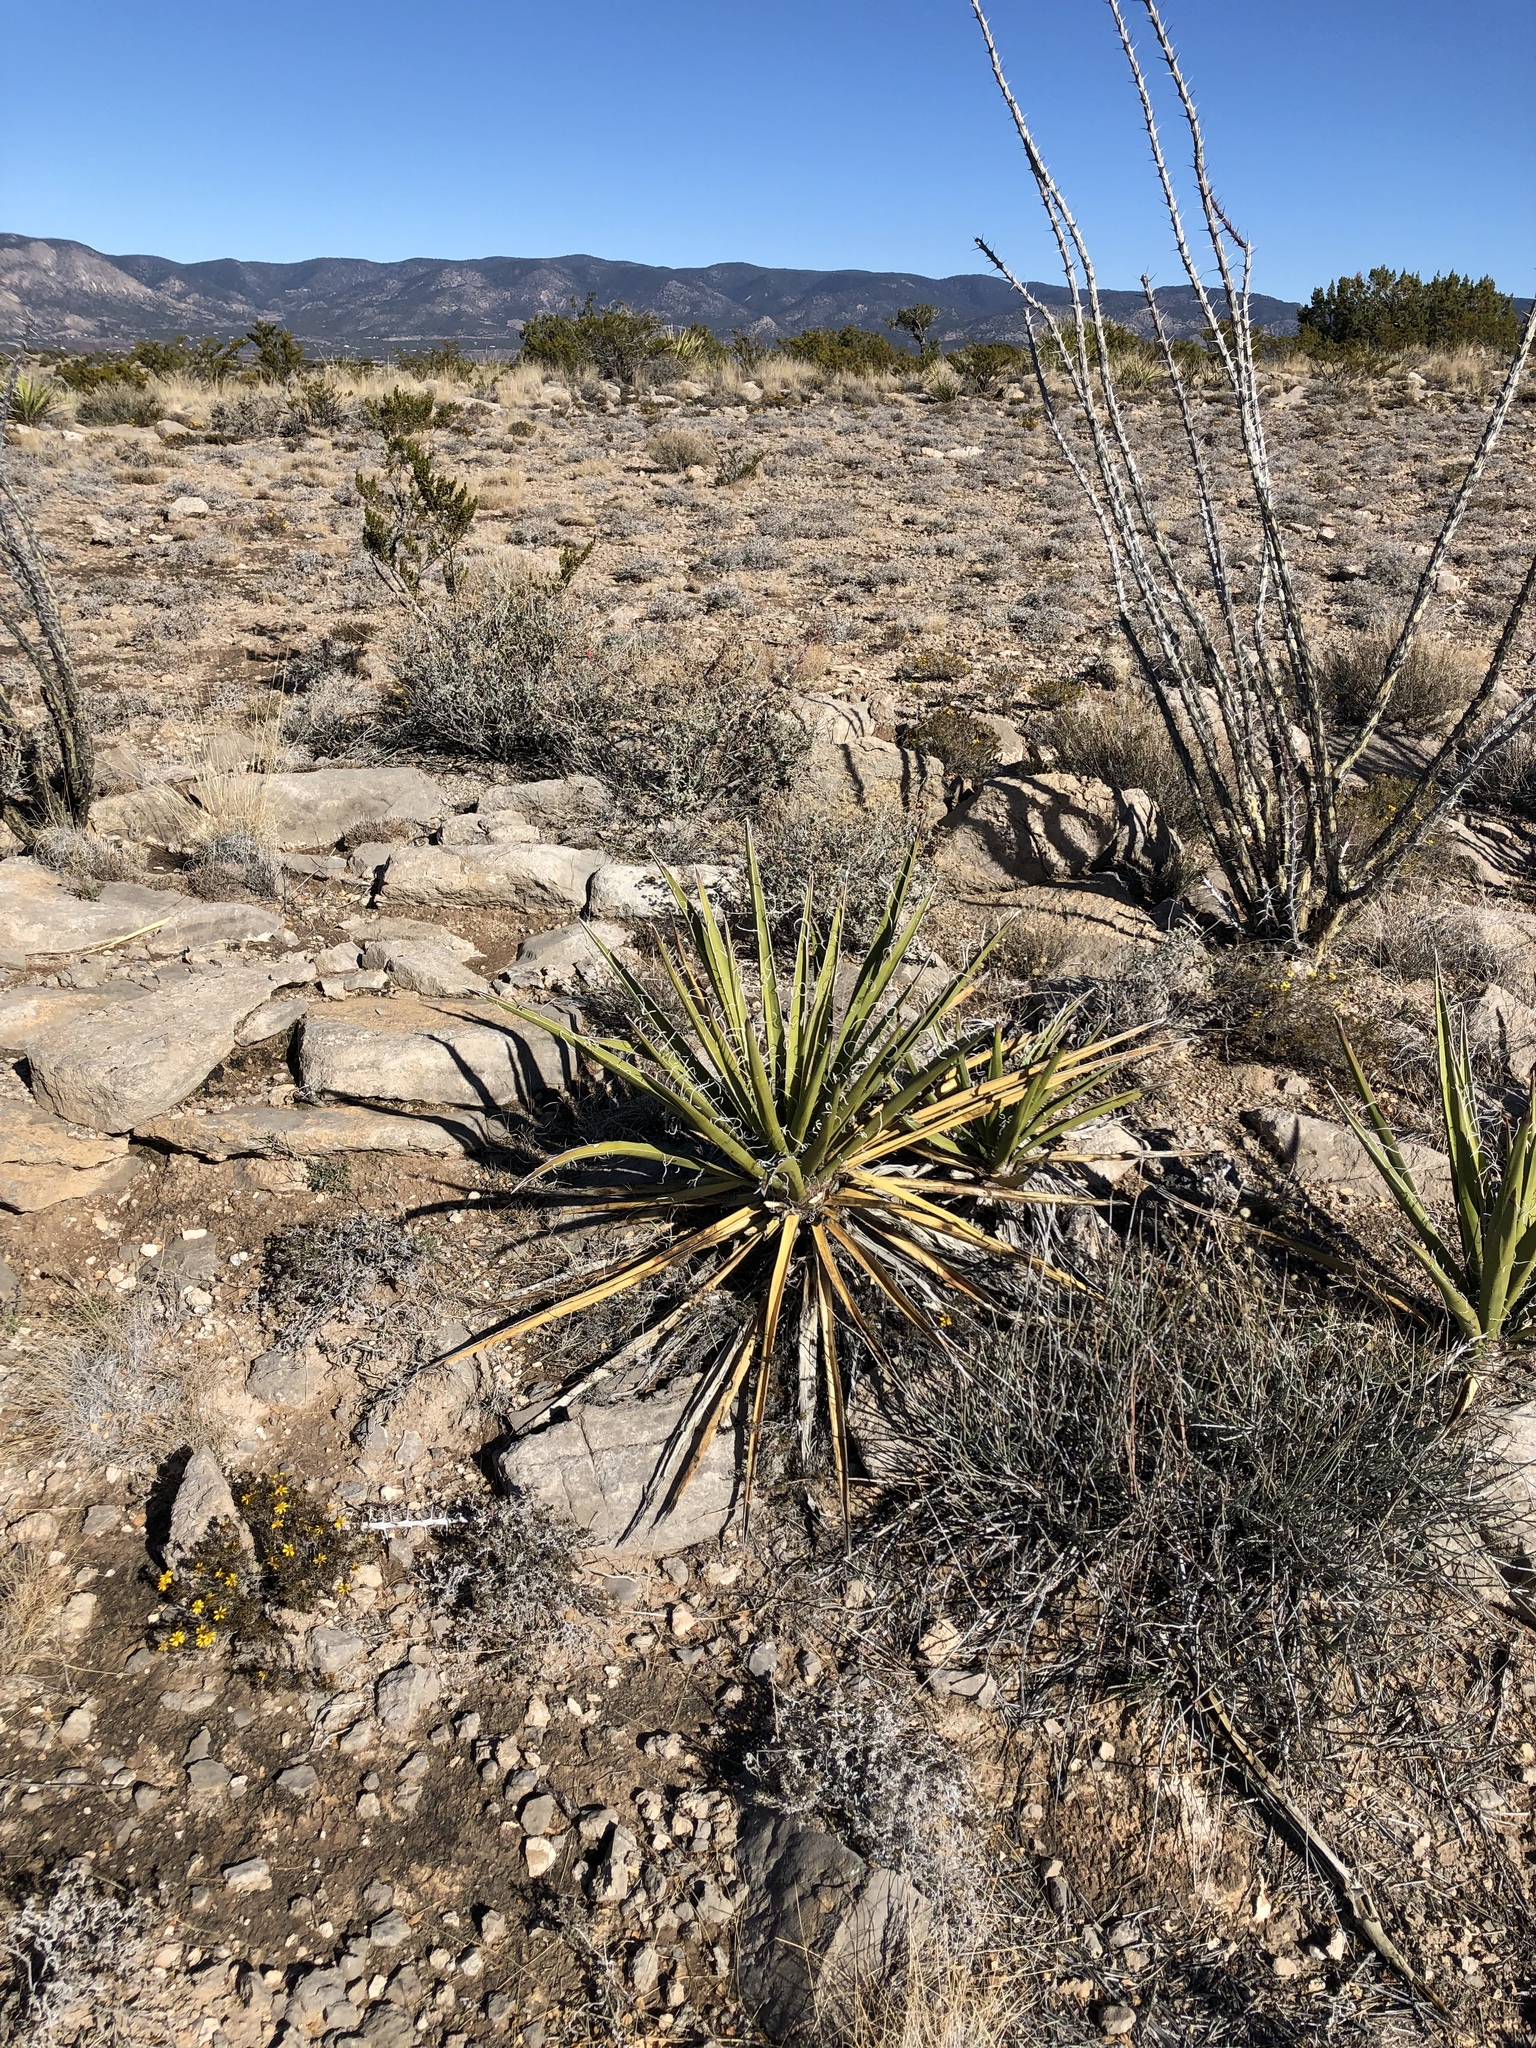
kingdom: Plantae
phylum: Tracheophyta
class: Liliopsida
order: Asparagales
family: Asparagaceae
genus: Yucca
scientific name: Yucca baccata
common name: Banana yucca
